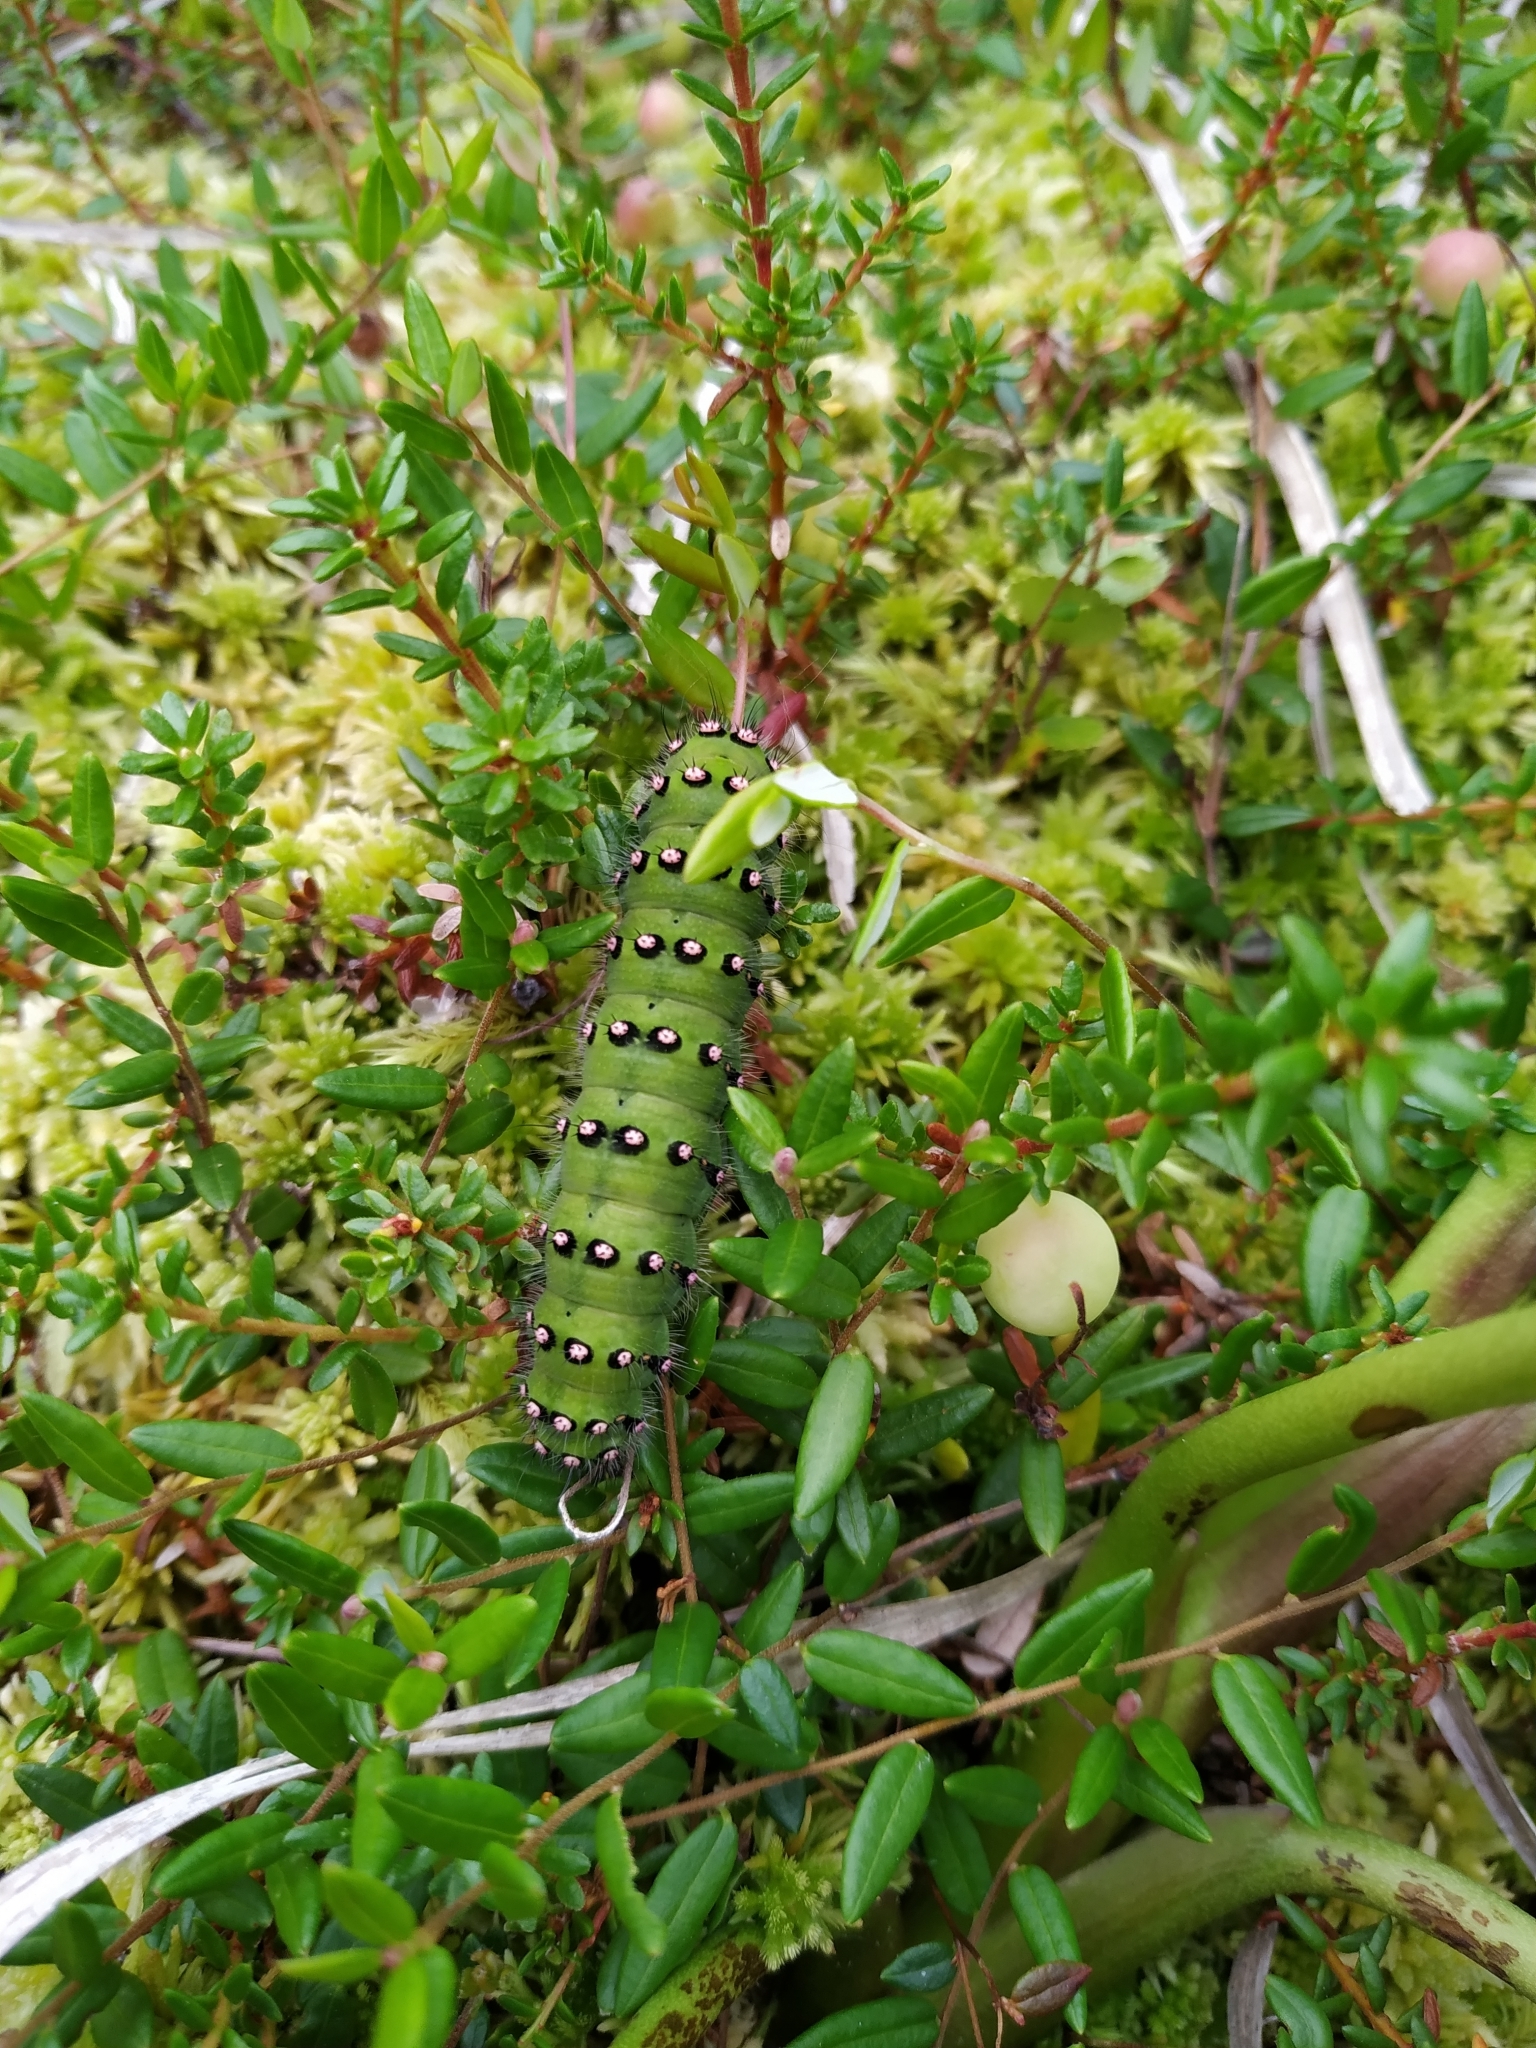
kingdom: Animalia
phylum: Arthropoda
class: Insecta
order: Lepidoptera
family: Saturniidae
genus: Saturnia
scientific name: Saturnia pavonia
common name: Emperor moth
